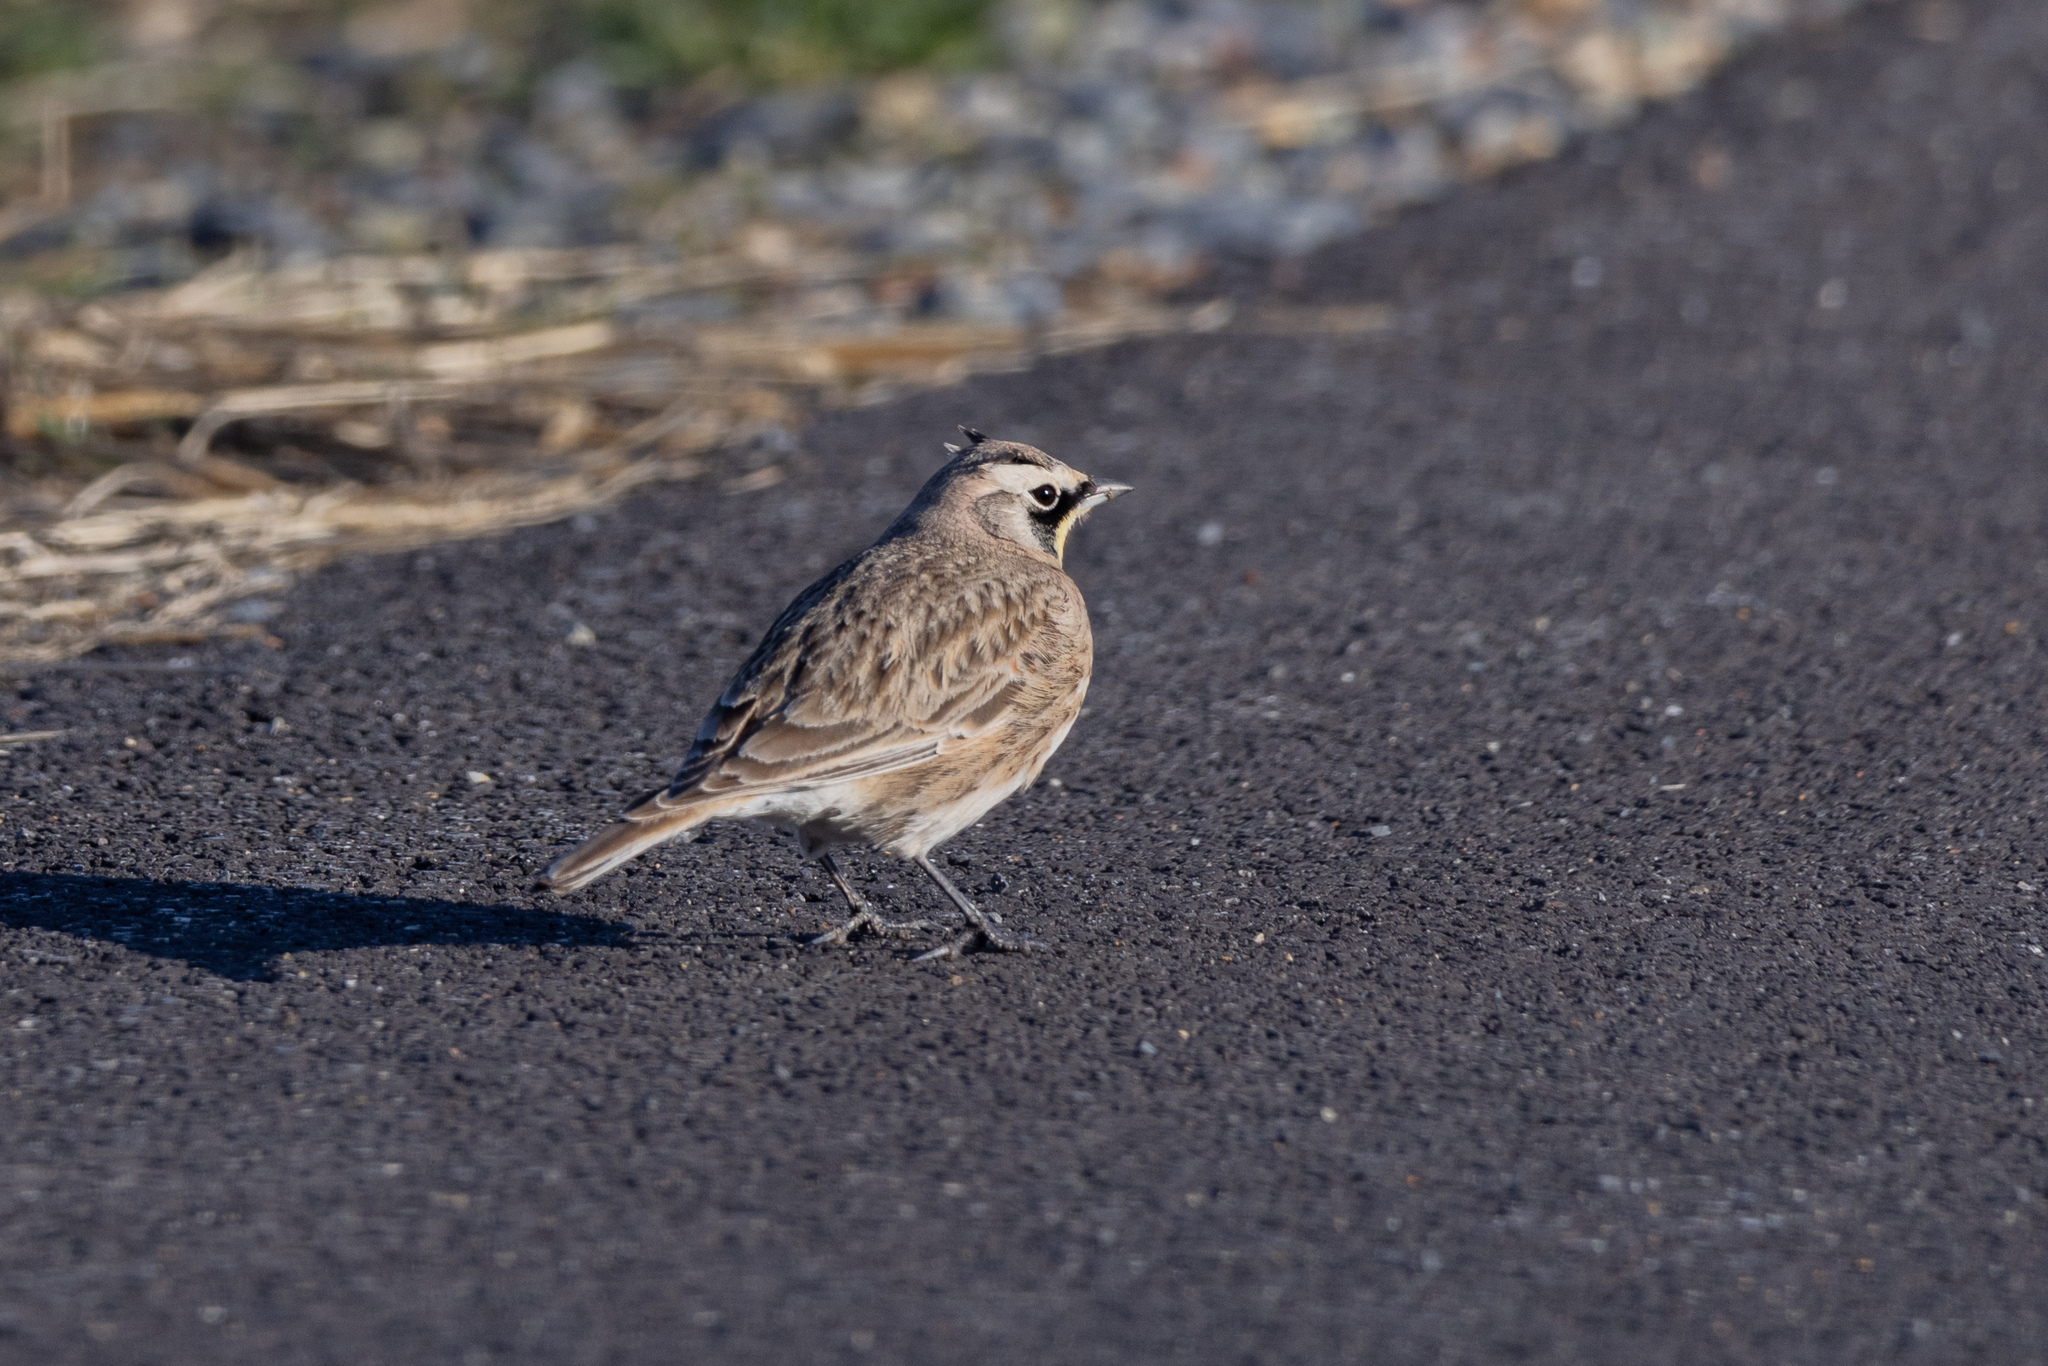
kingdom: Animalia
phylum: Chordata
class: Aves
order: Passeriformes
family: Alaudidae
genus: Eremophila
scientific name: Eremophila alpestris
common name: Horned lark
